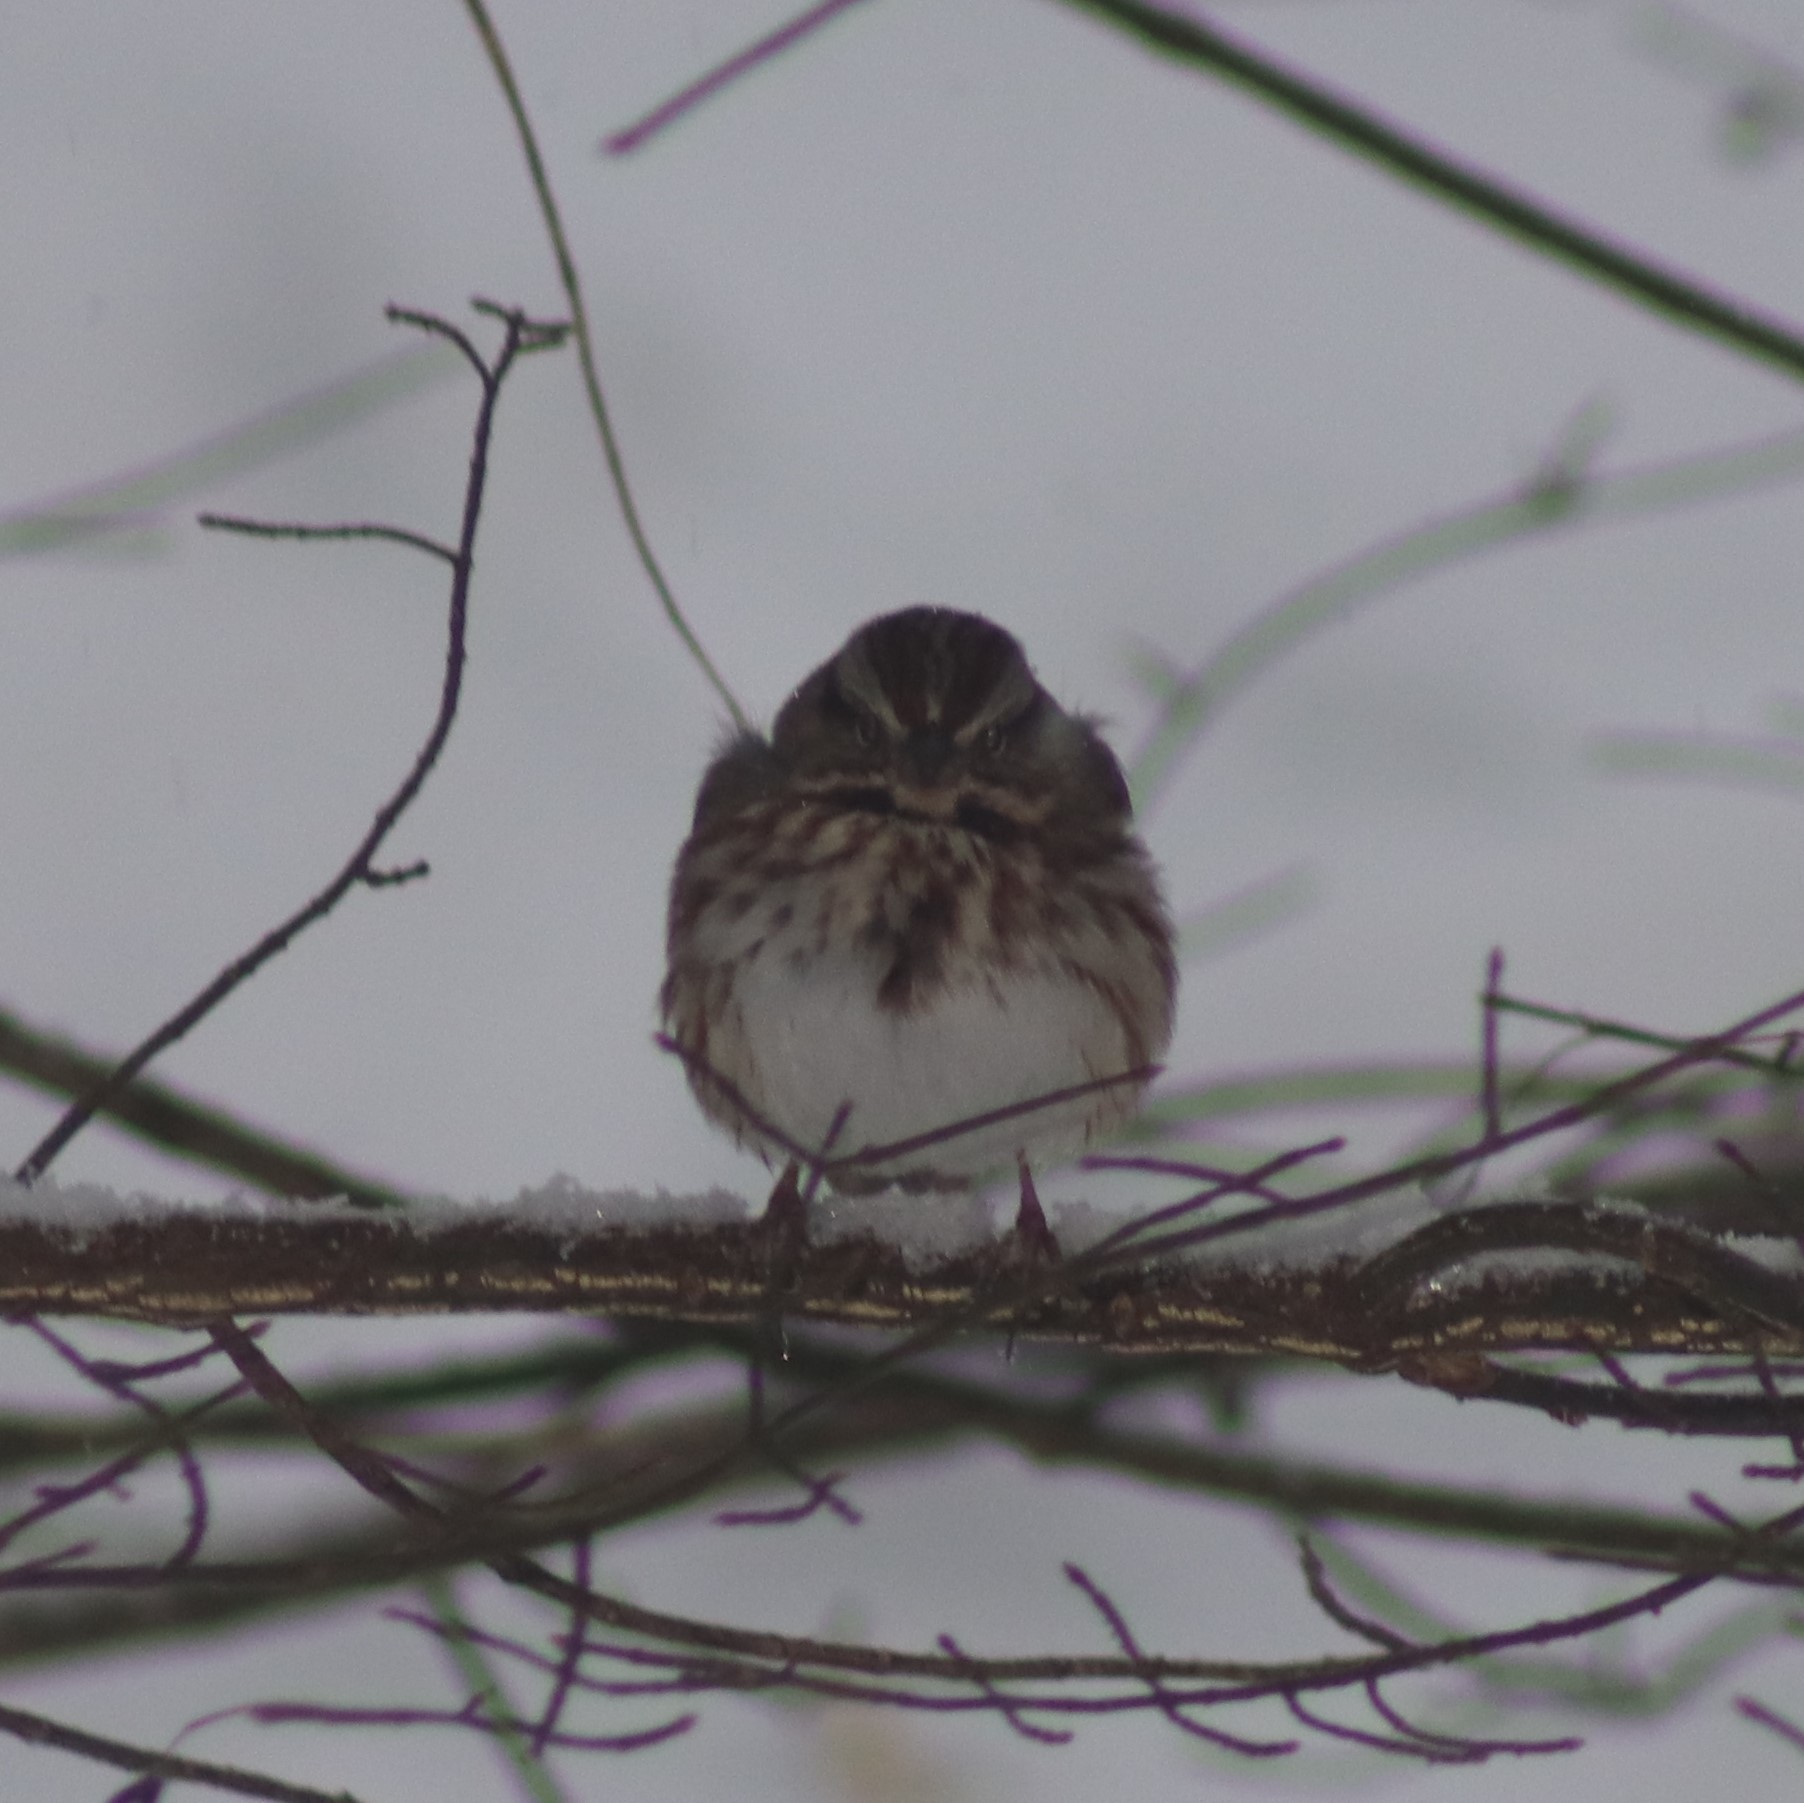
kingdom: Animalia
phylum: Chordata
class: Aves
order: Passeriformes
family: Passerellidae
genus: Melospiza
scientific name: Melospiza melodia
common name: Song sparrow
